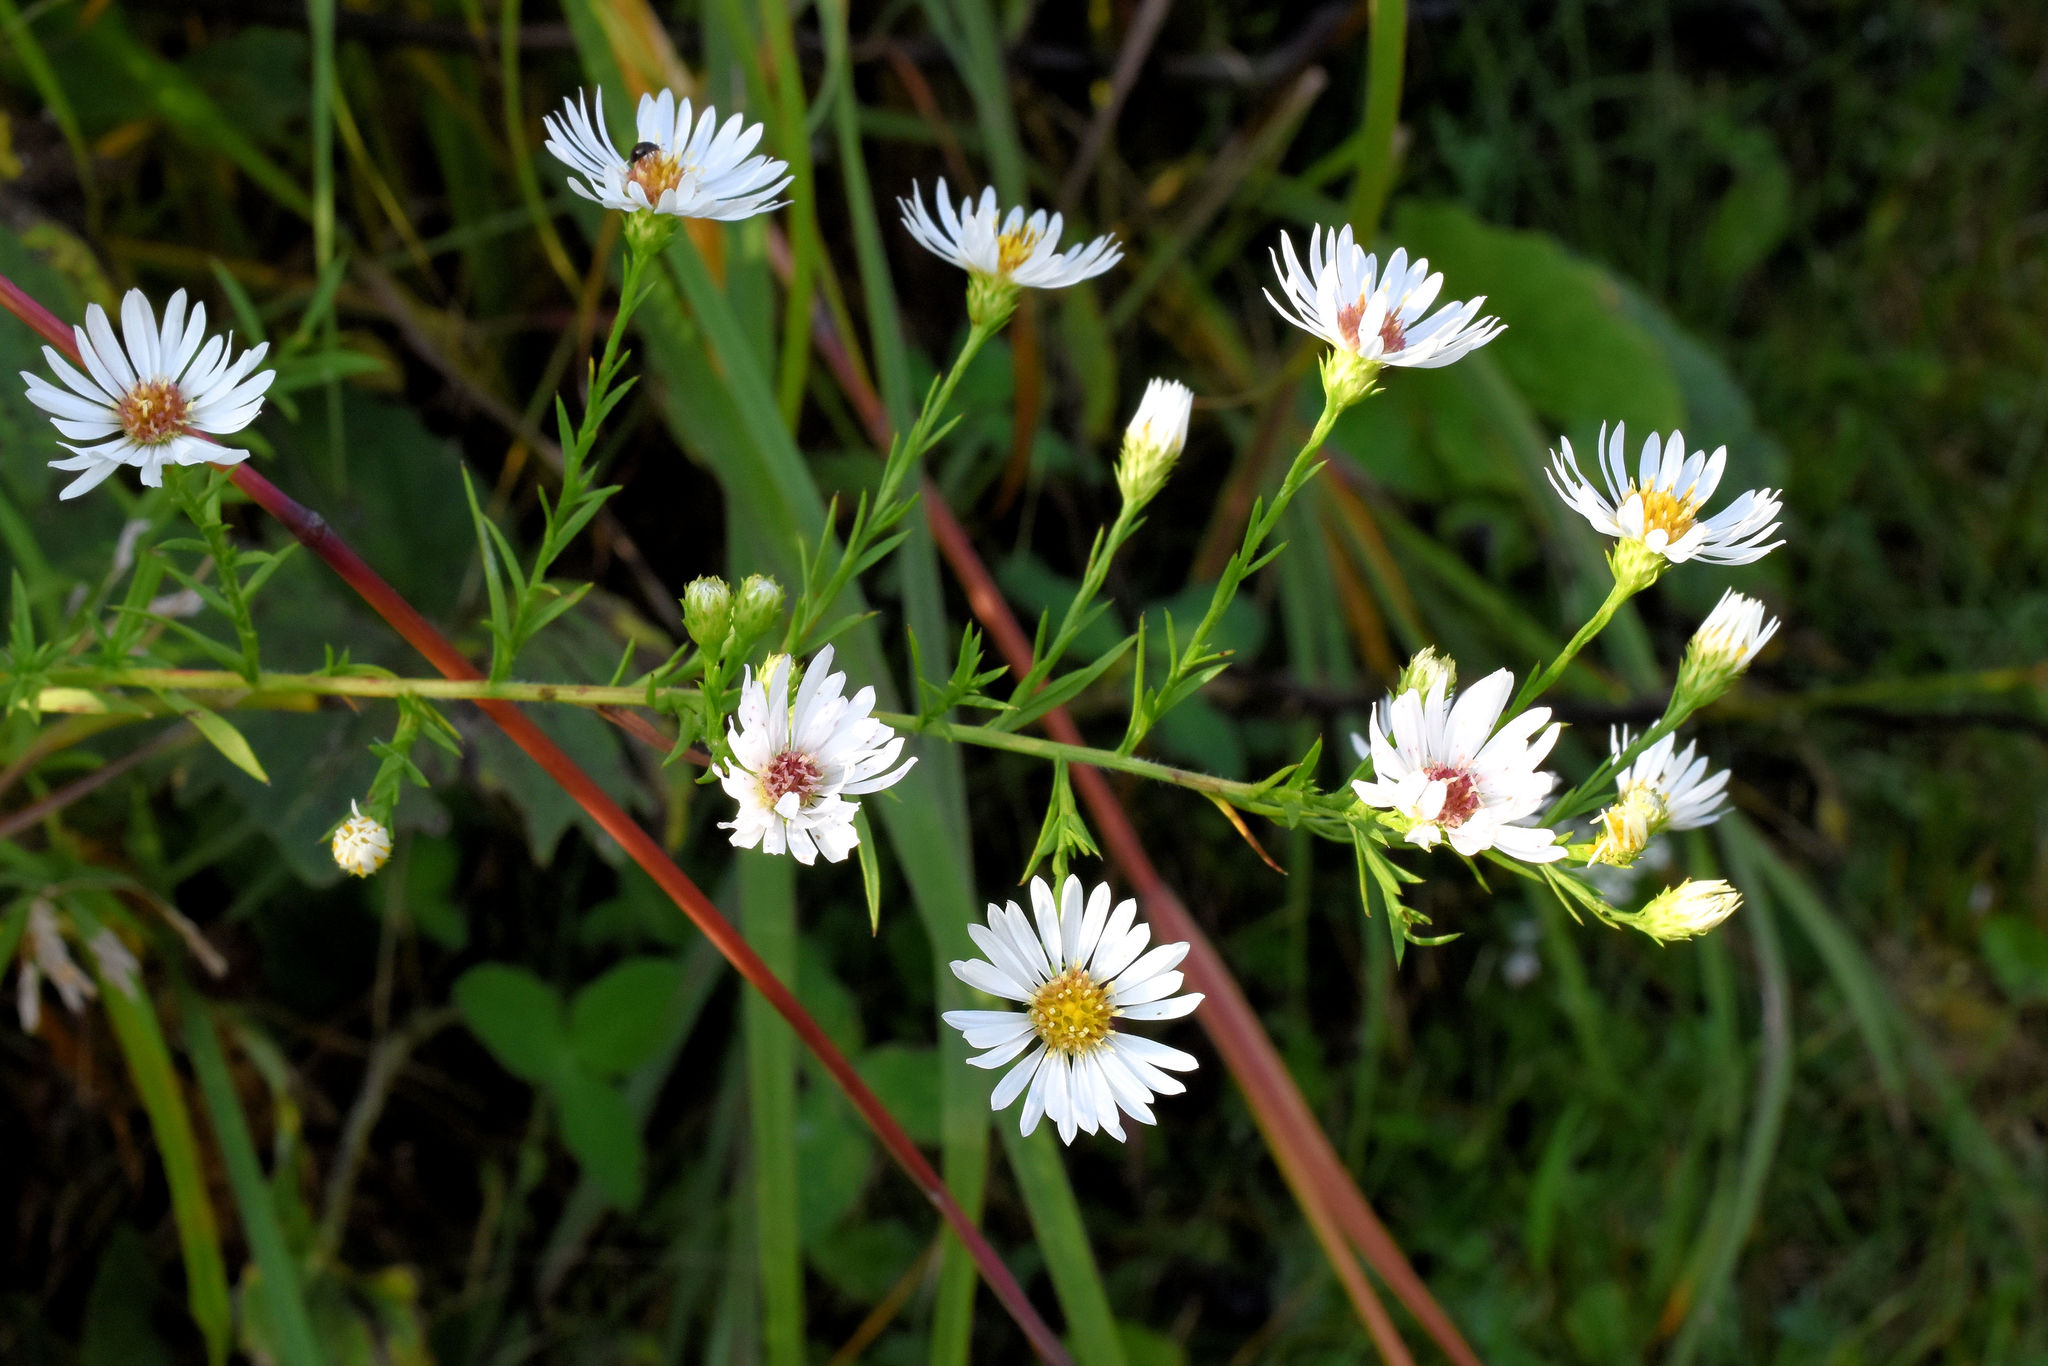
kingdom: Plantae
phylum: Tracheophyta
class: Magnoliopsida
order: Asterales
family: Asteraceae
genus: Symphyotrichum
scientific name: Symphyotrichum pilosum
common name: Awl aster
